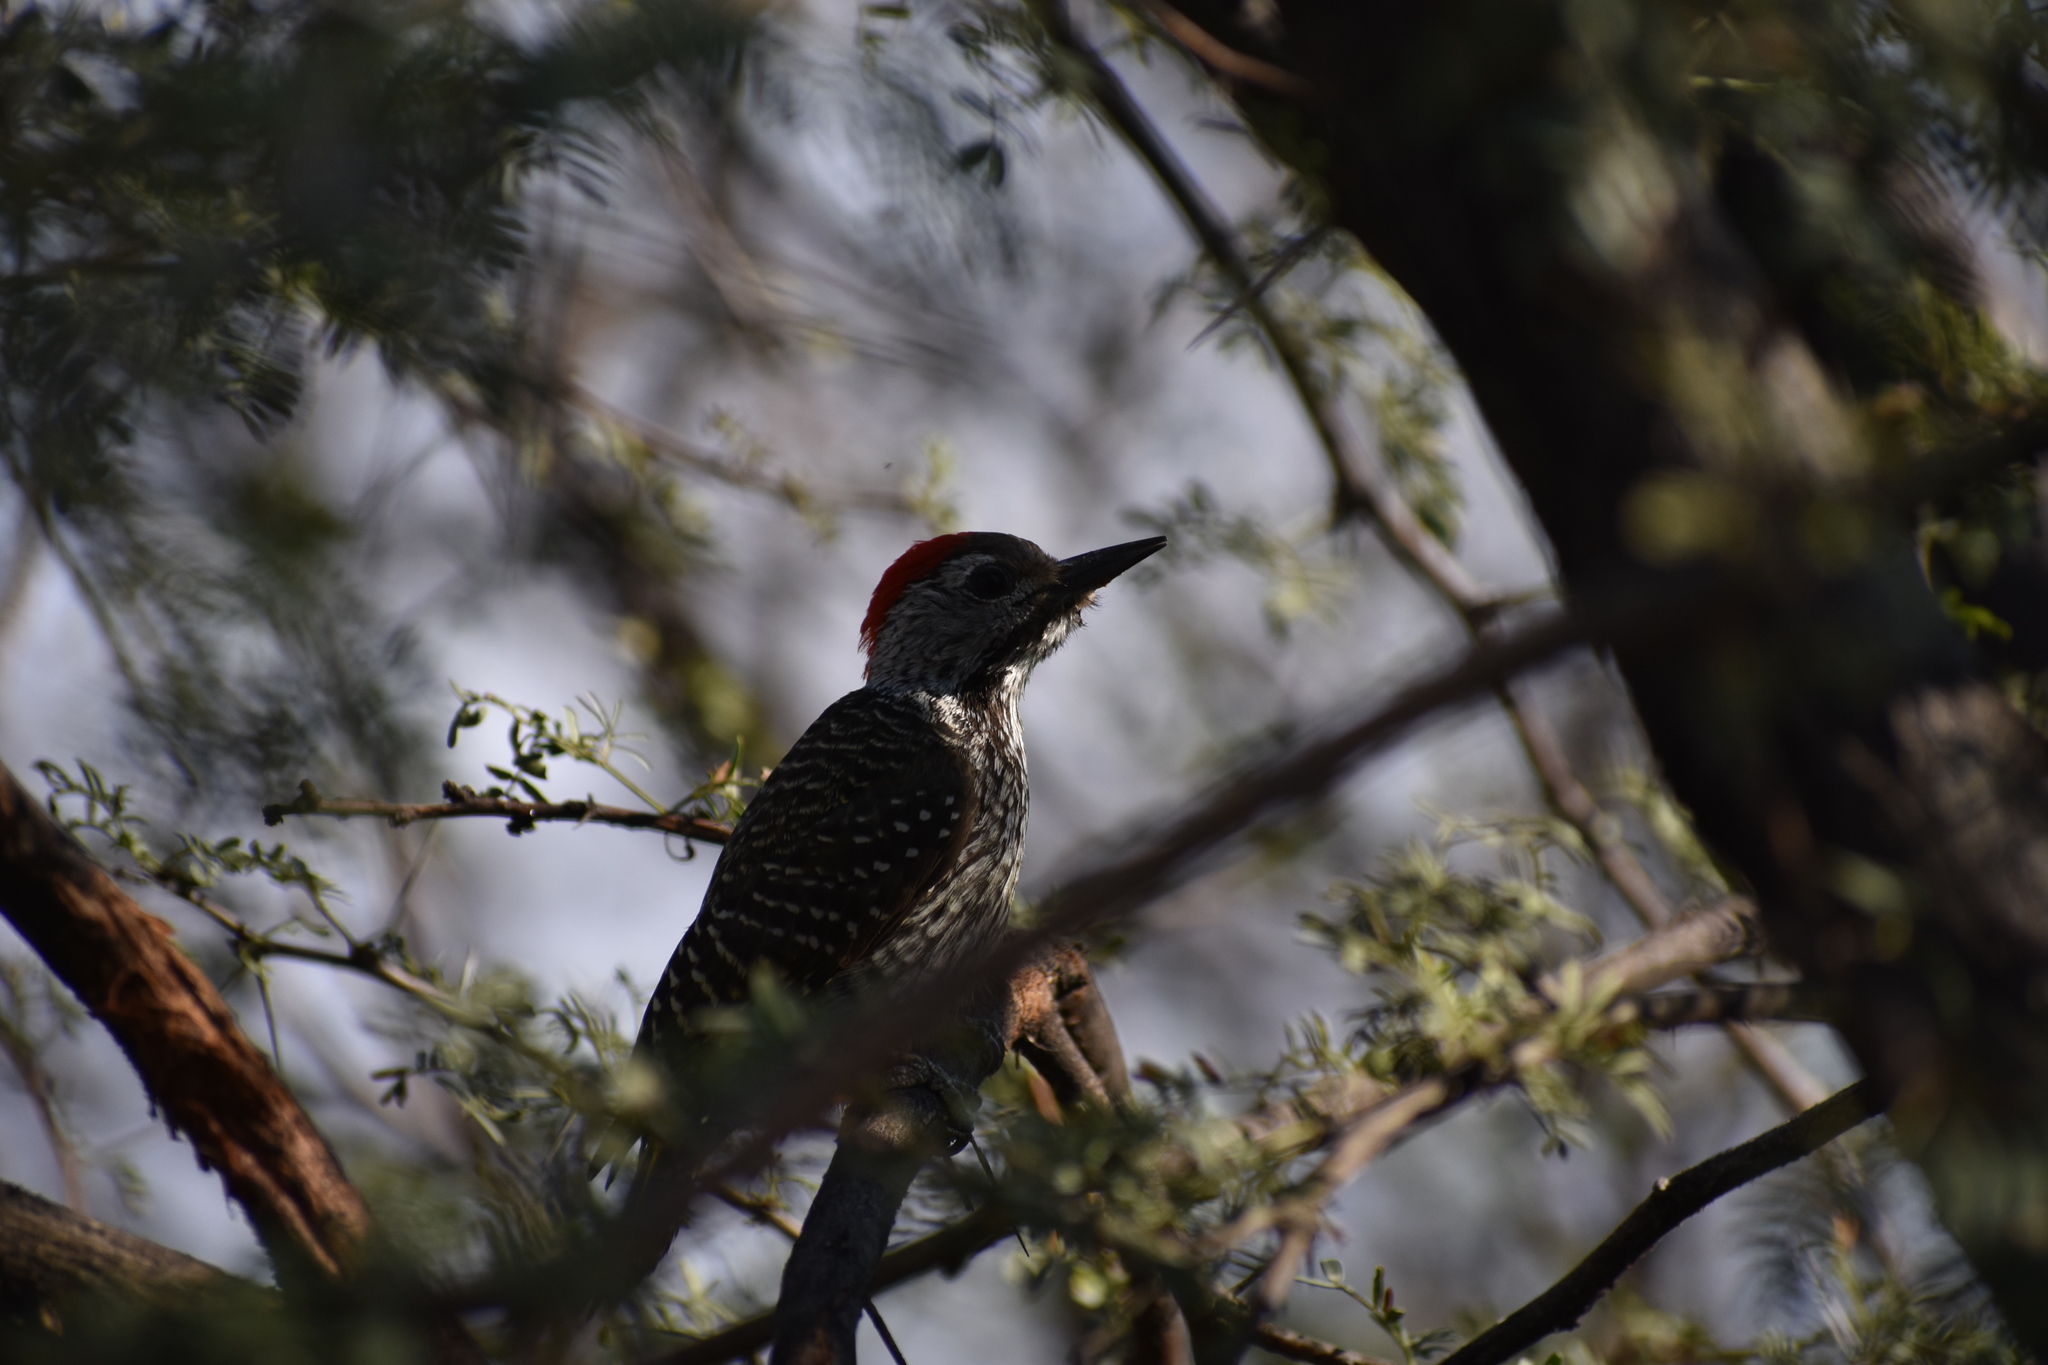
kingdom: Animalia
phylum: Chordata
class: Aves
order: Piciformes
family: Picidae
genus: Dendropicos
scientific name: Dendropicos fuscescens
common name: Cardinal woodpecker
